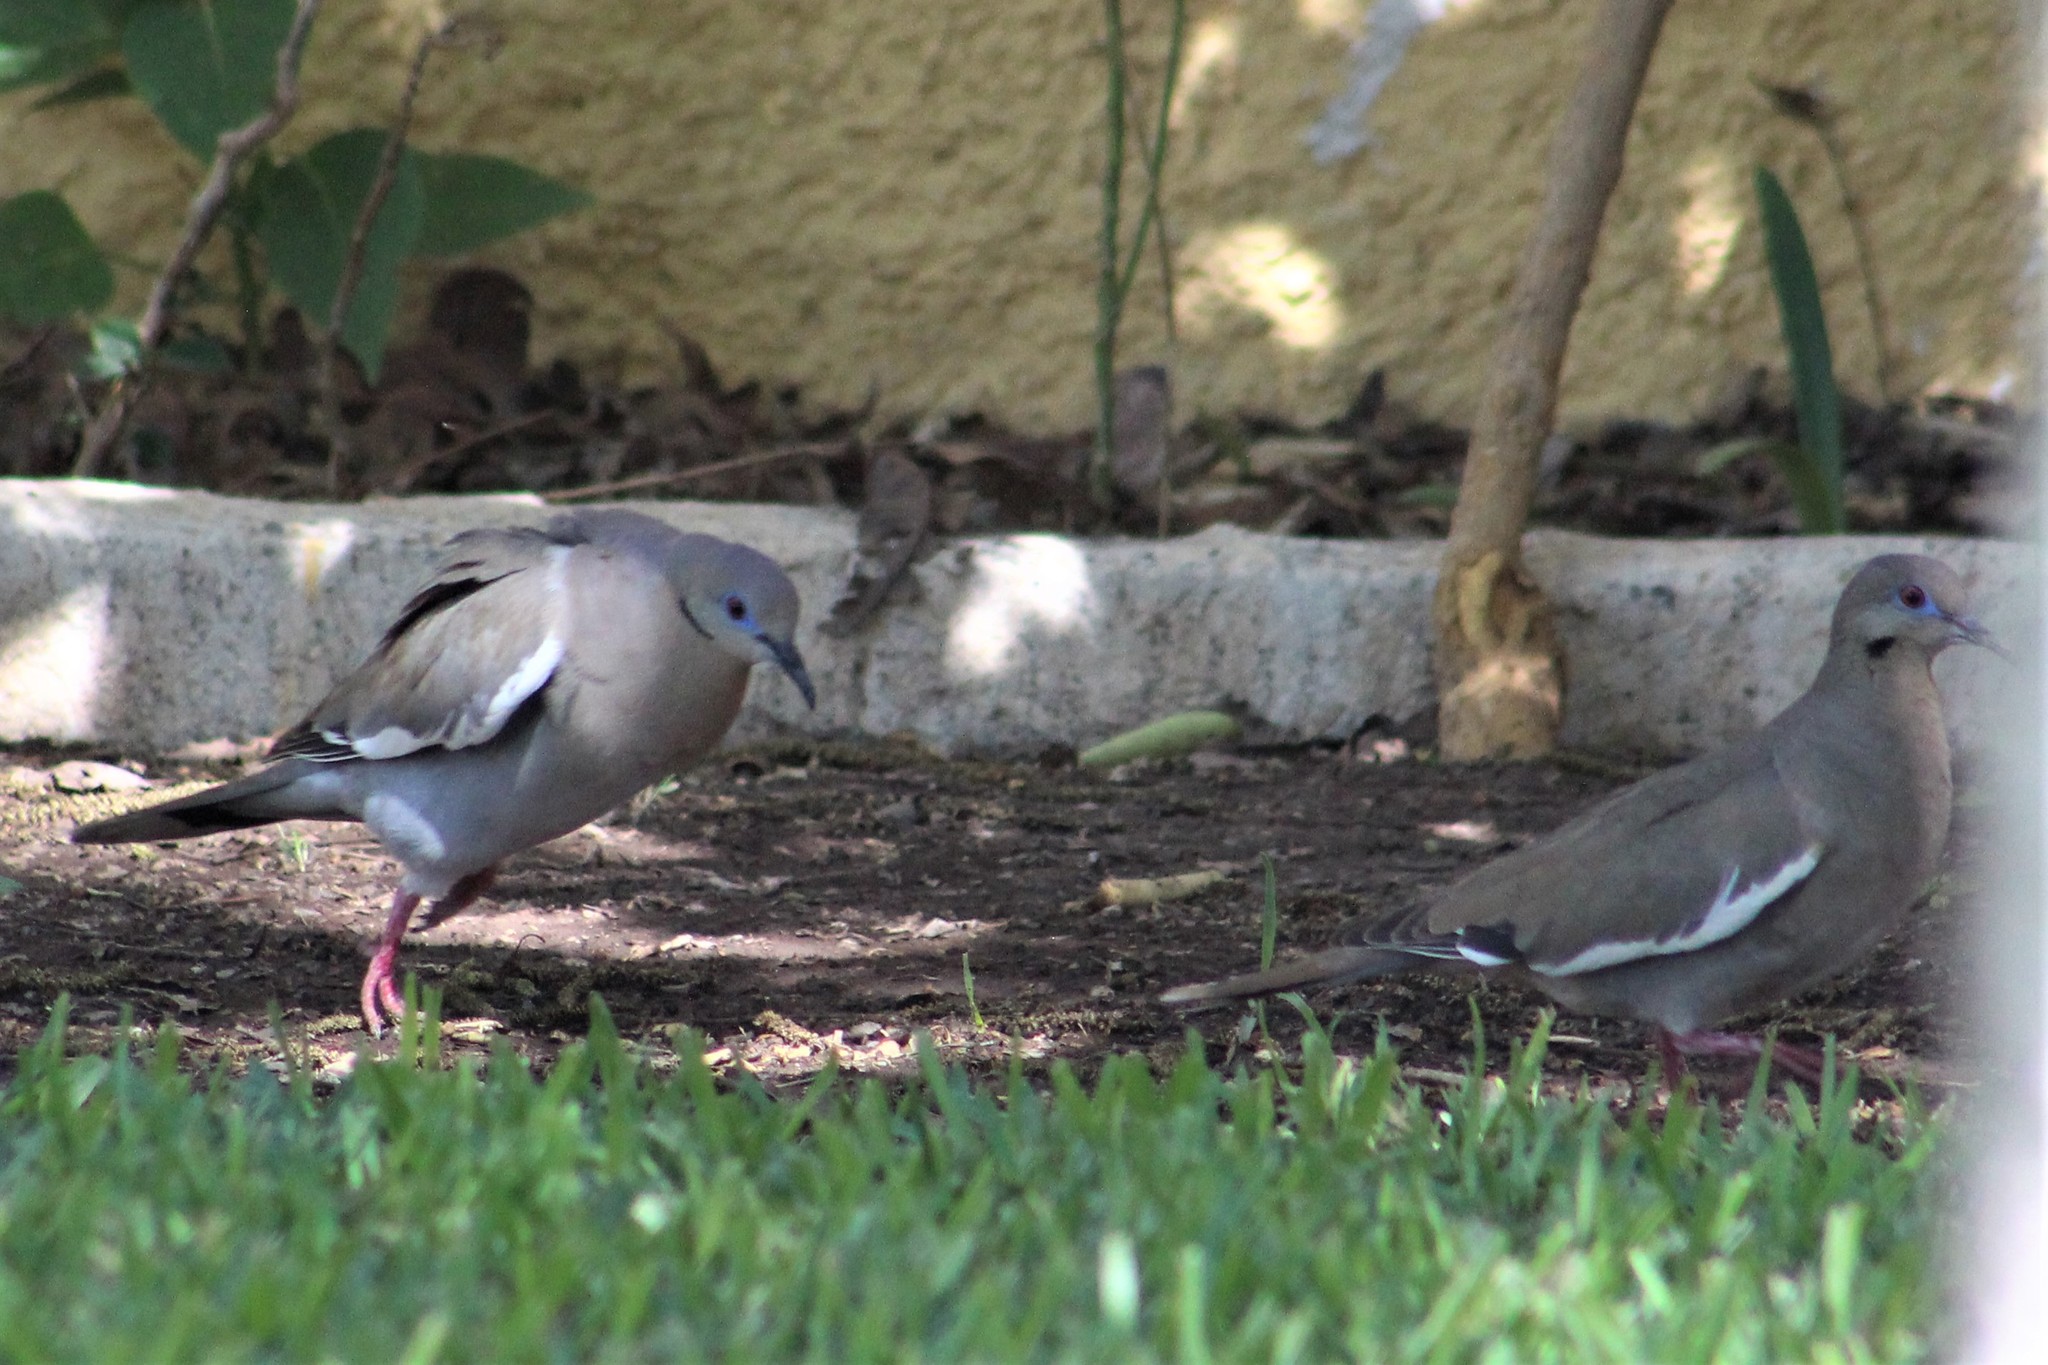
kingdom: Animalia
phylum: Chordata
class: Aves
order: Columbiformes
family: Columbidae
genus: Zenaida
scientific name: Zenaida asiatica
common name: White-winged dove
